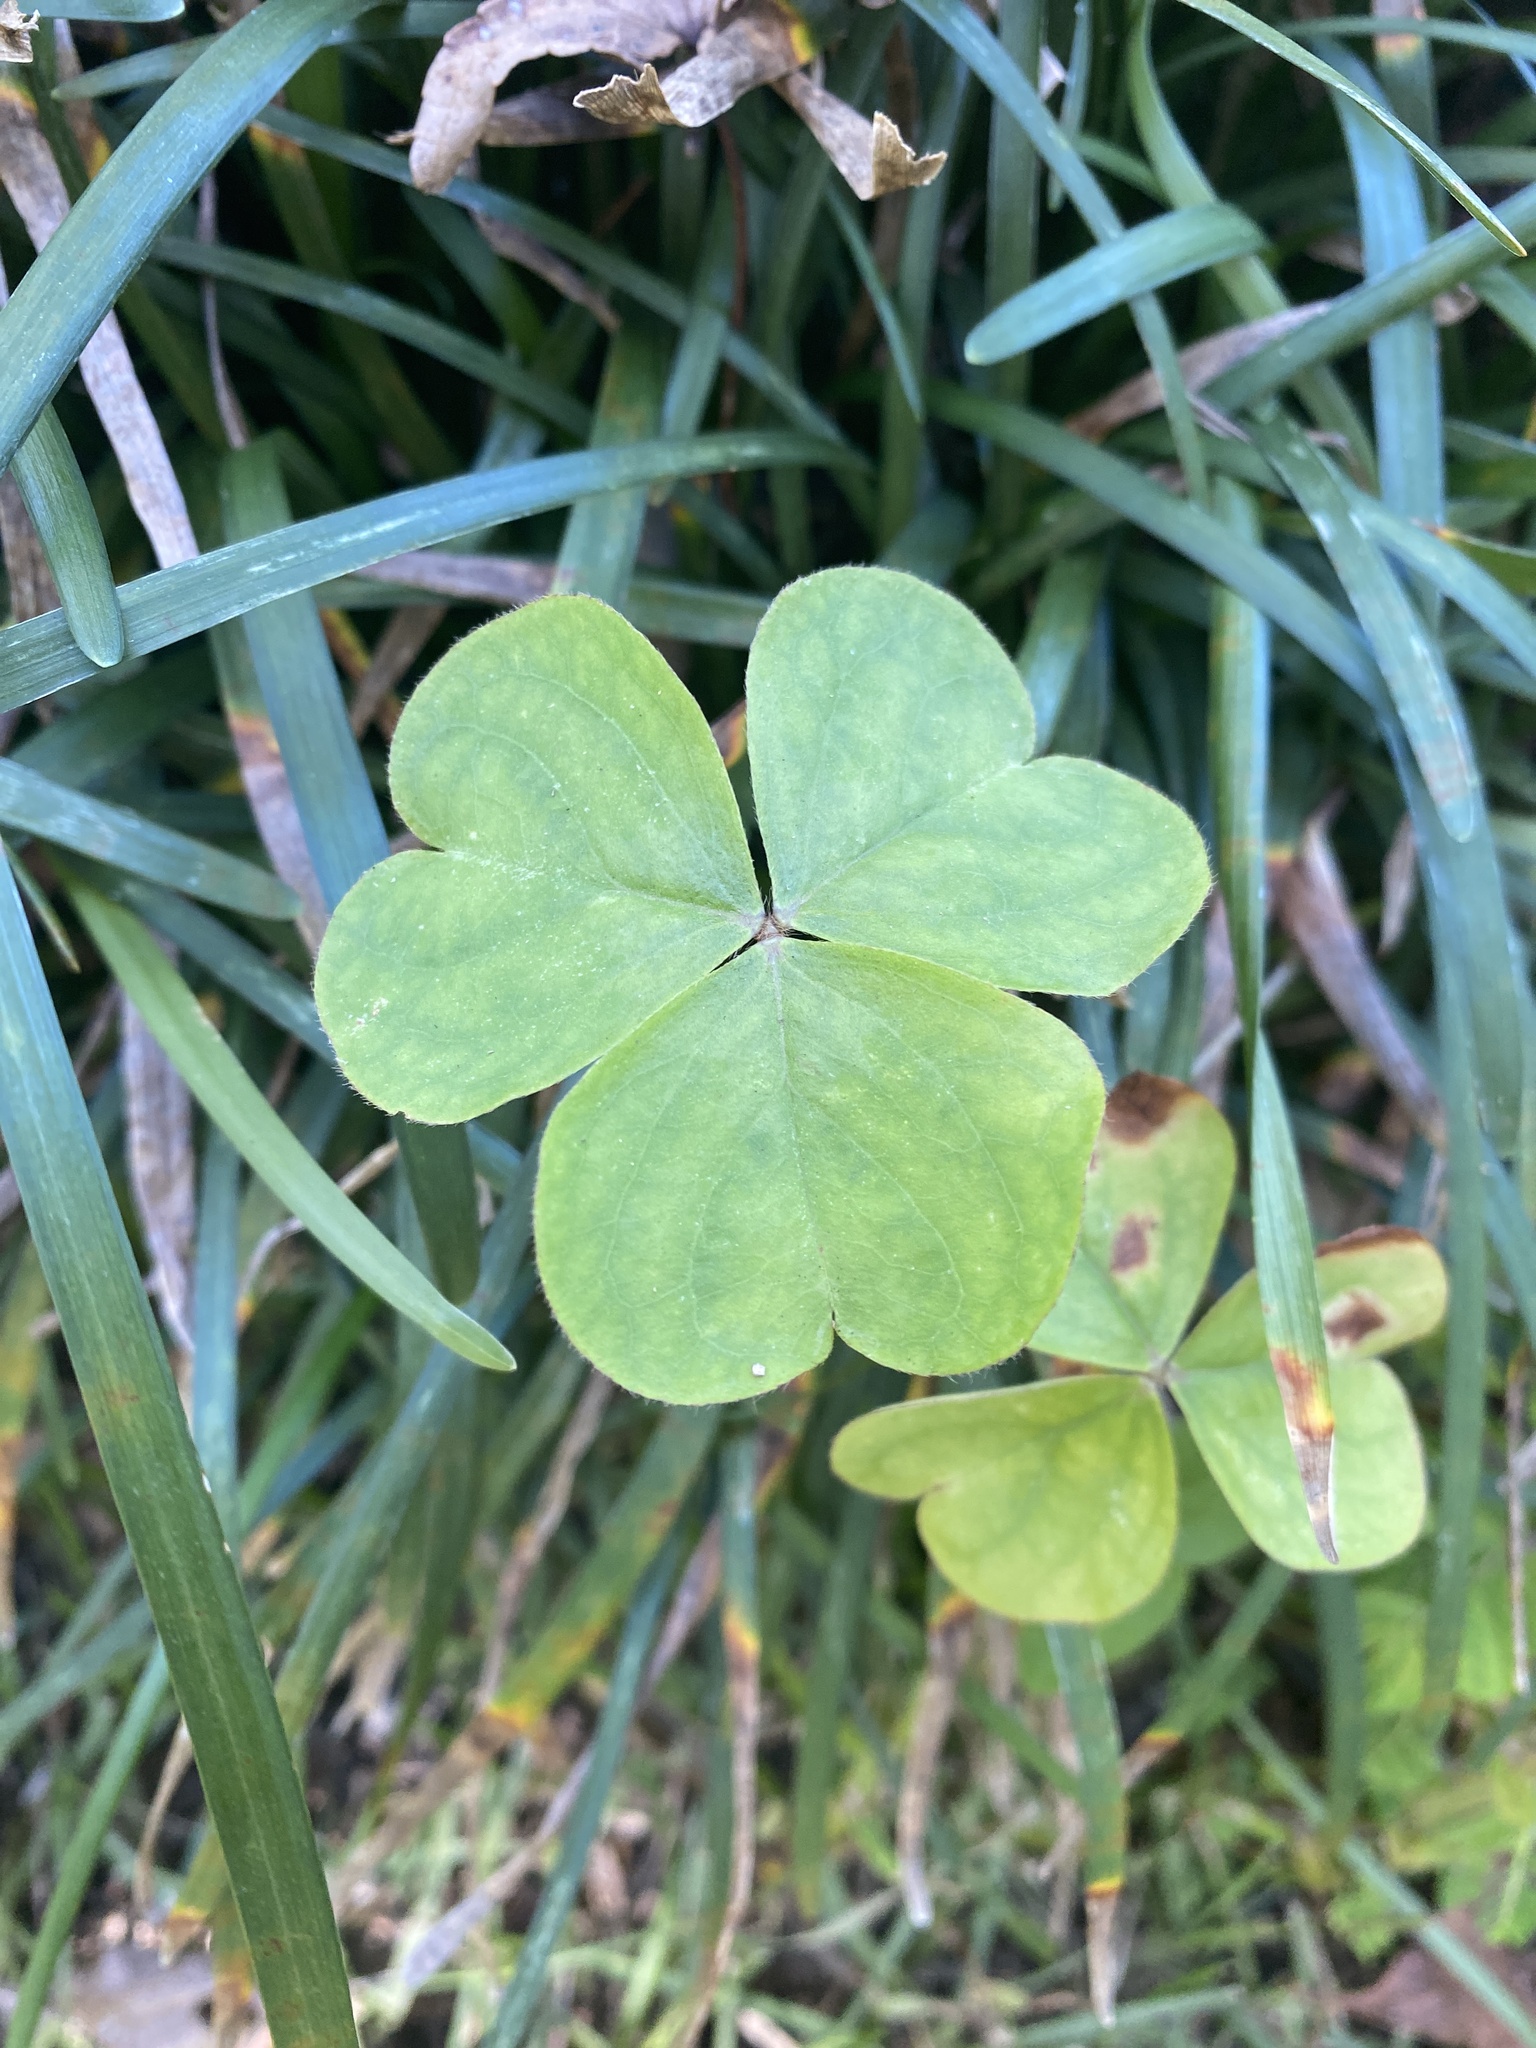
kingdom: Plantae
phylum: Tracheophyta
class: Magnoliopsida
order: Oxalidales
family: Oxalidaceae
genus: Oxalis
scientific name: Oxalis debilis
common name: Large-flowered pink-sorrel
